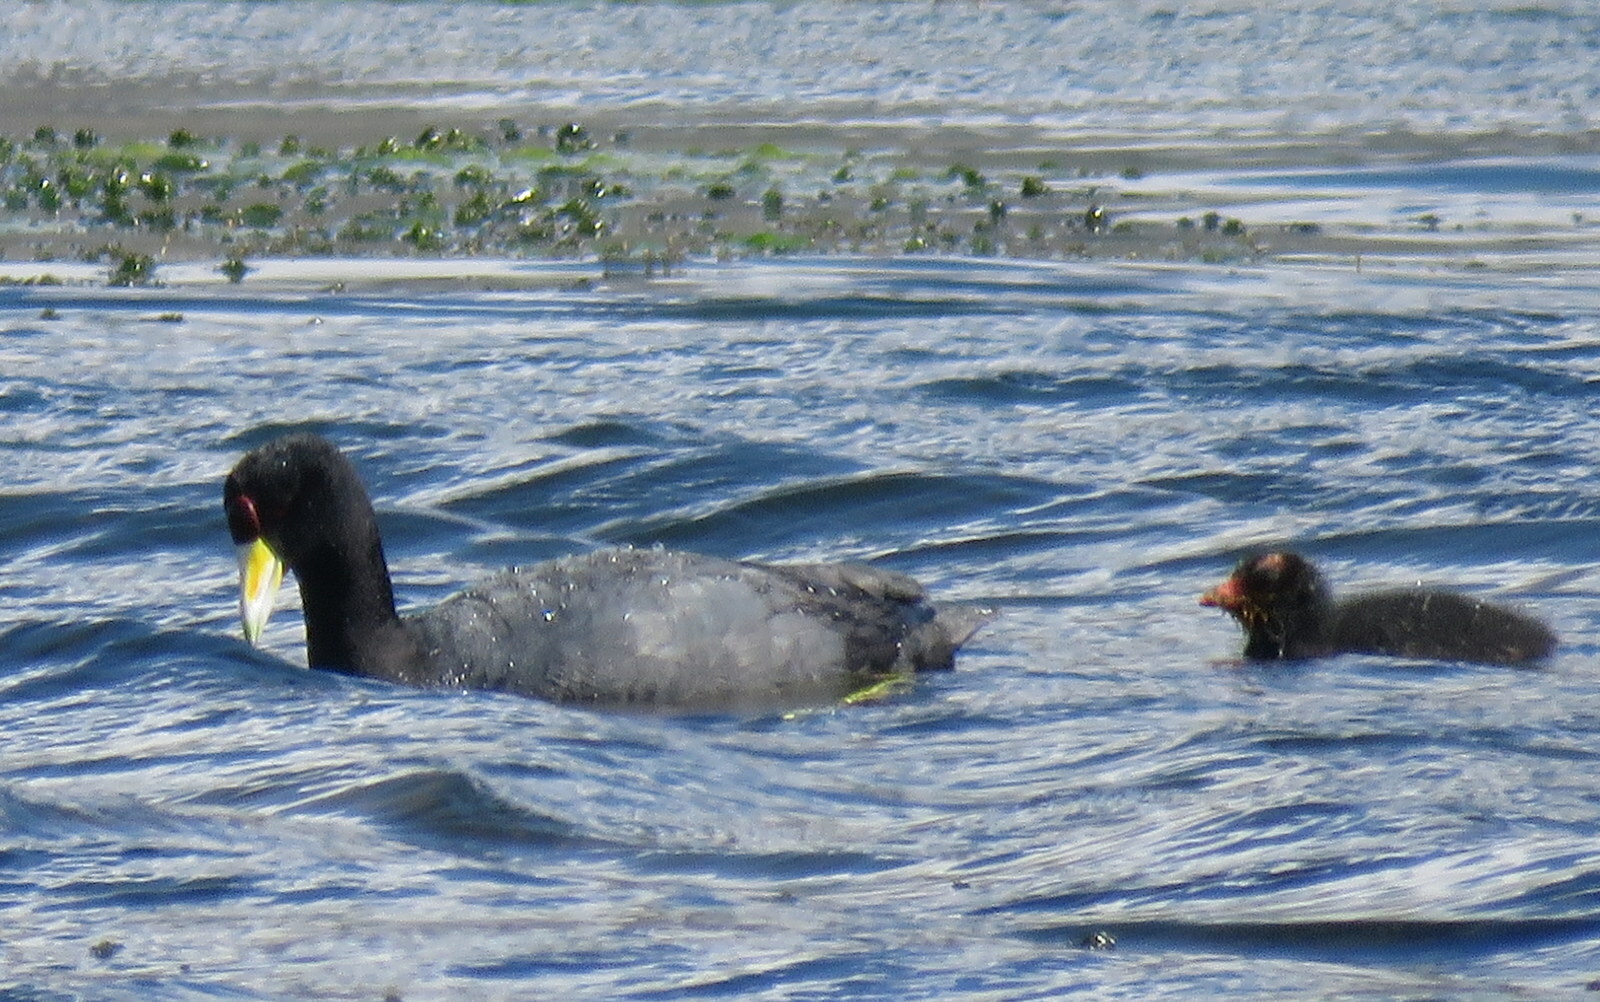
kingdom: Animalia
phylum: Chordata
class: Aves
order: Gruiformes
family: Rallidae
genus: Fulica
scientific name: Fulica ardesiaca
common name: Andean coot
